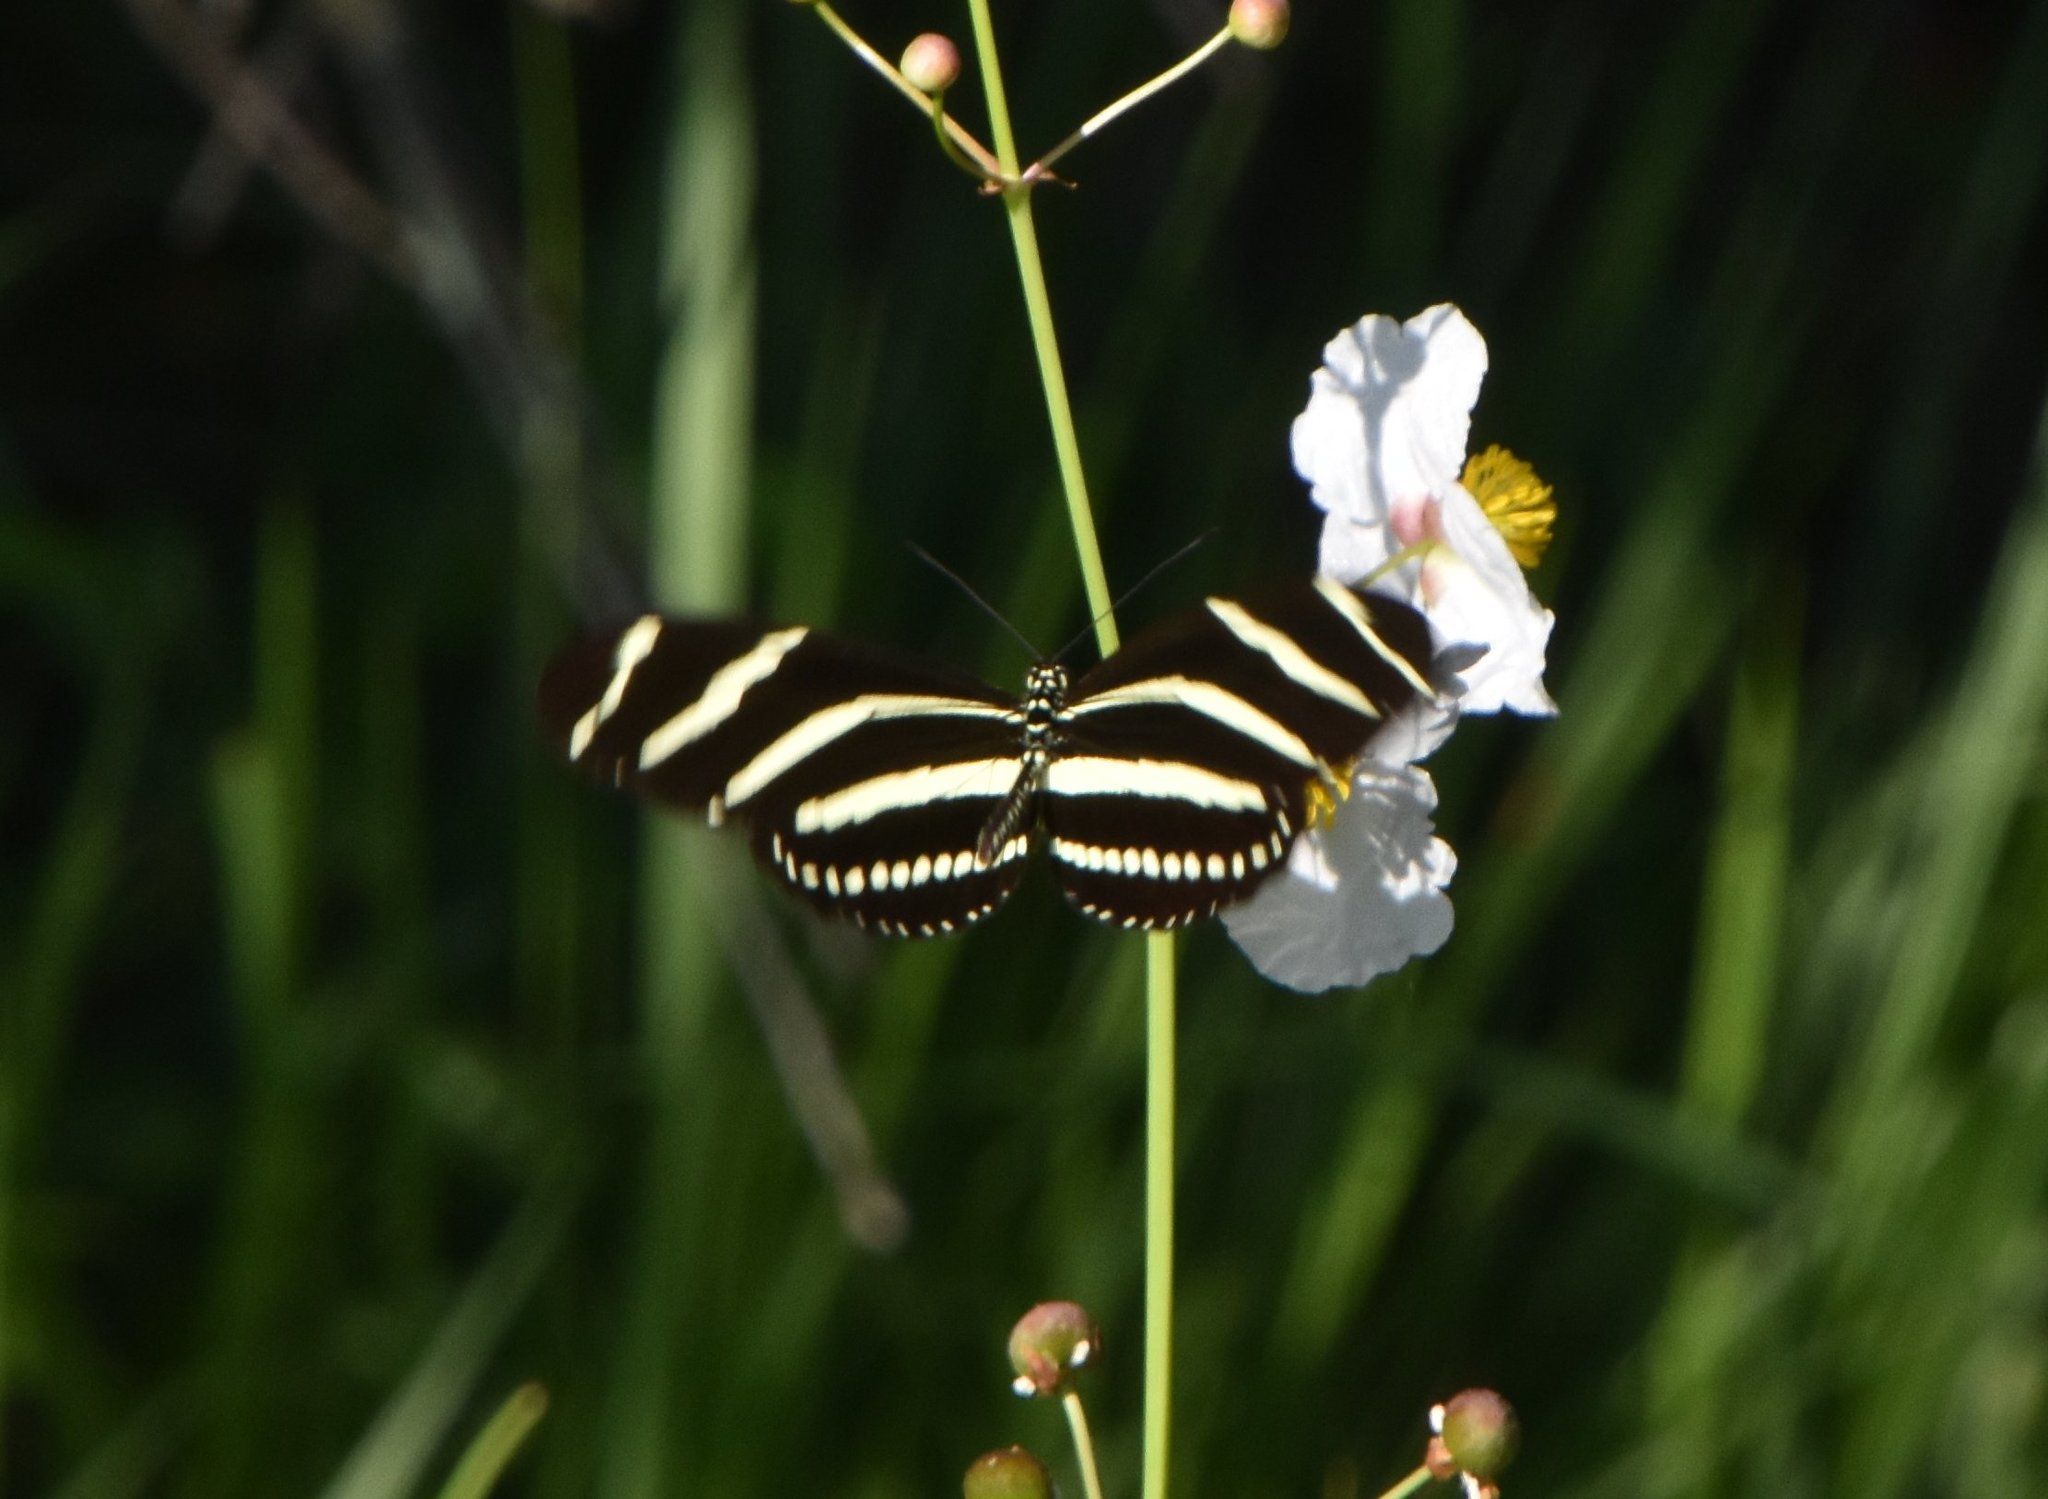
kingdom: Animalia
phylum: Arthropoda
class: Insecta
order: Lepidoptera
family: Nymphalidae
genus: Heliconius
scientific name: Heliconius charithonia
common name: Zebra long wing
